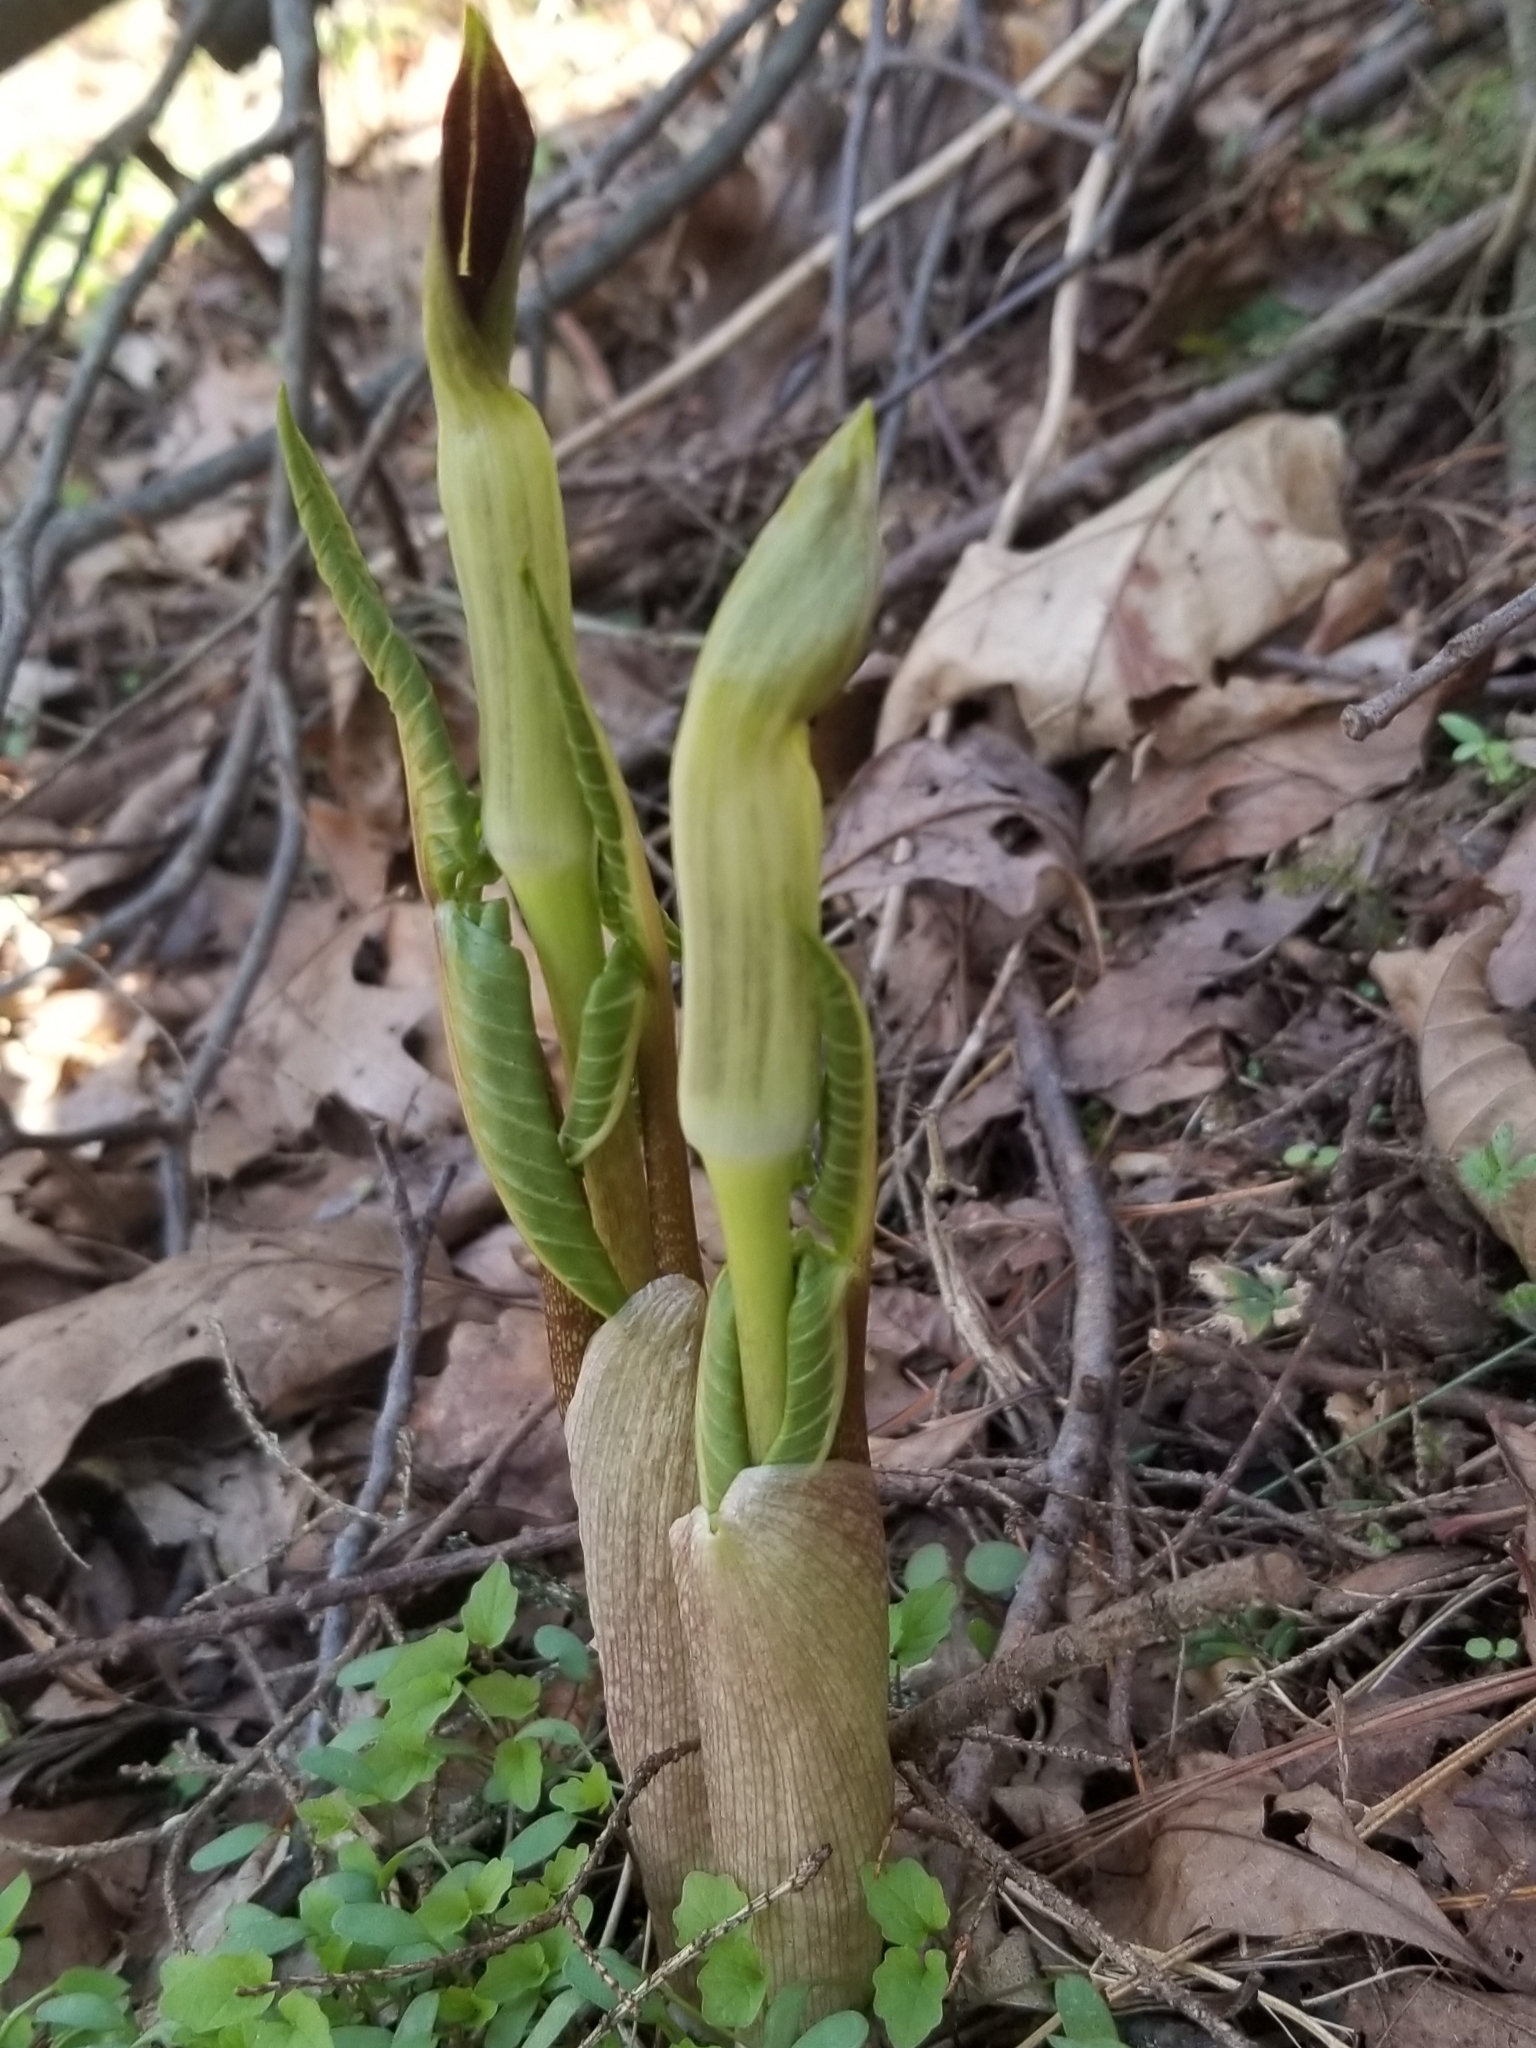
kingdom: Plantae
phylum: Tracheophyta
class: Liliopsida
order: Alismatales
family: Araceae
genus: Arisaema
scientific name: Arisaema triphyllum
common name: Jack-in-the-pulpit
